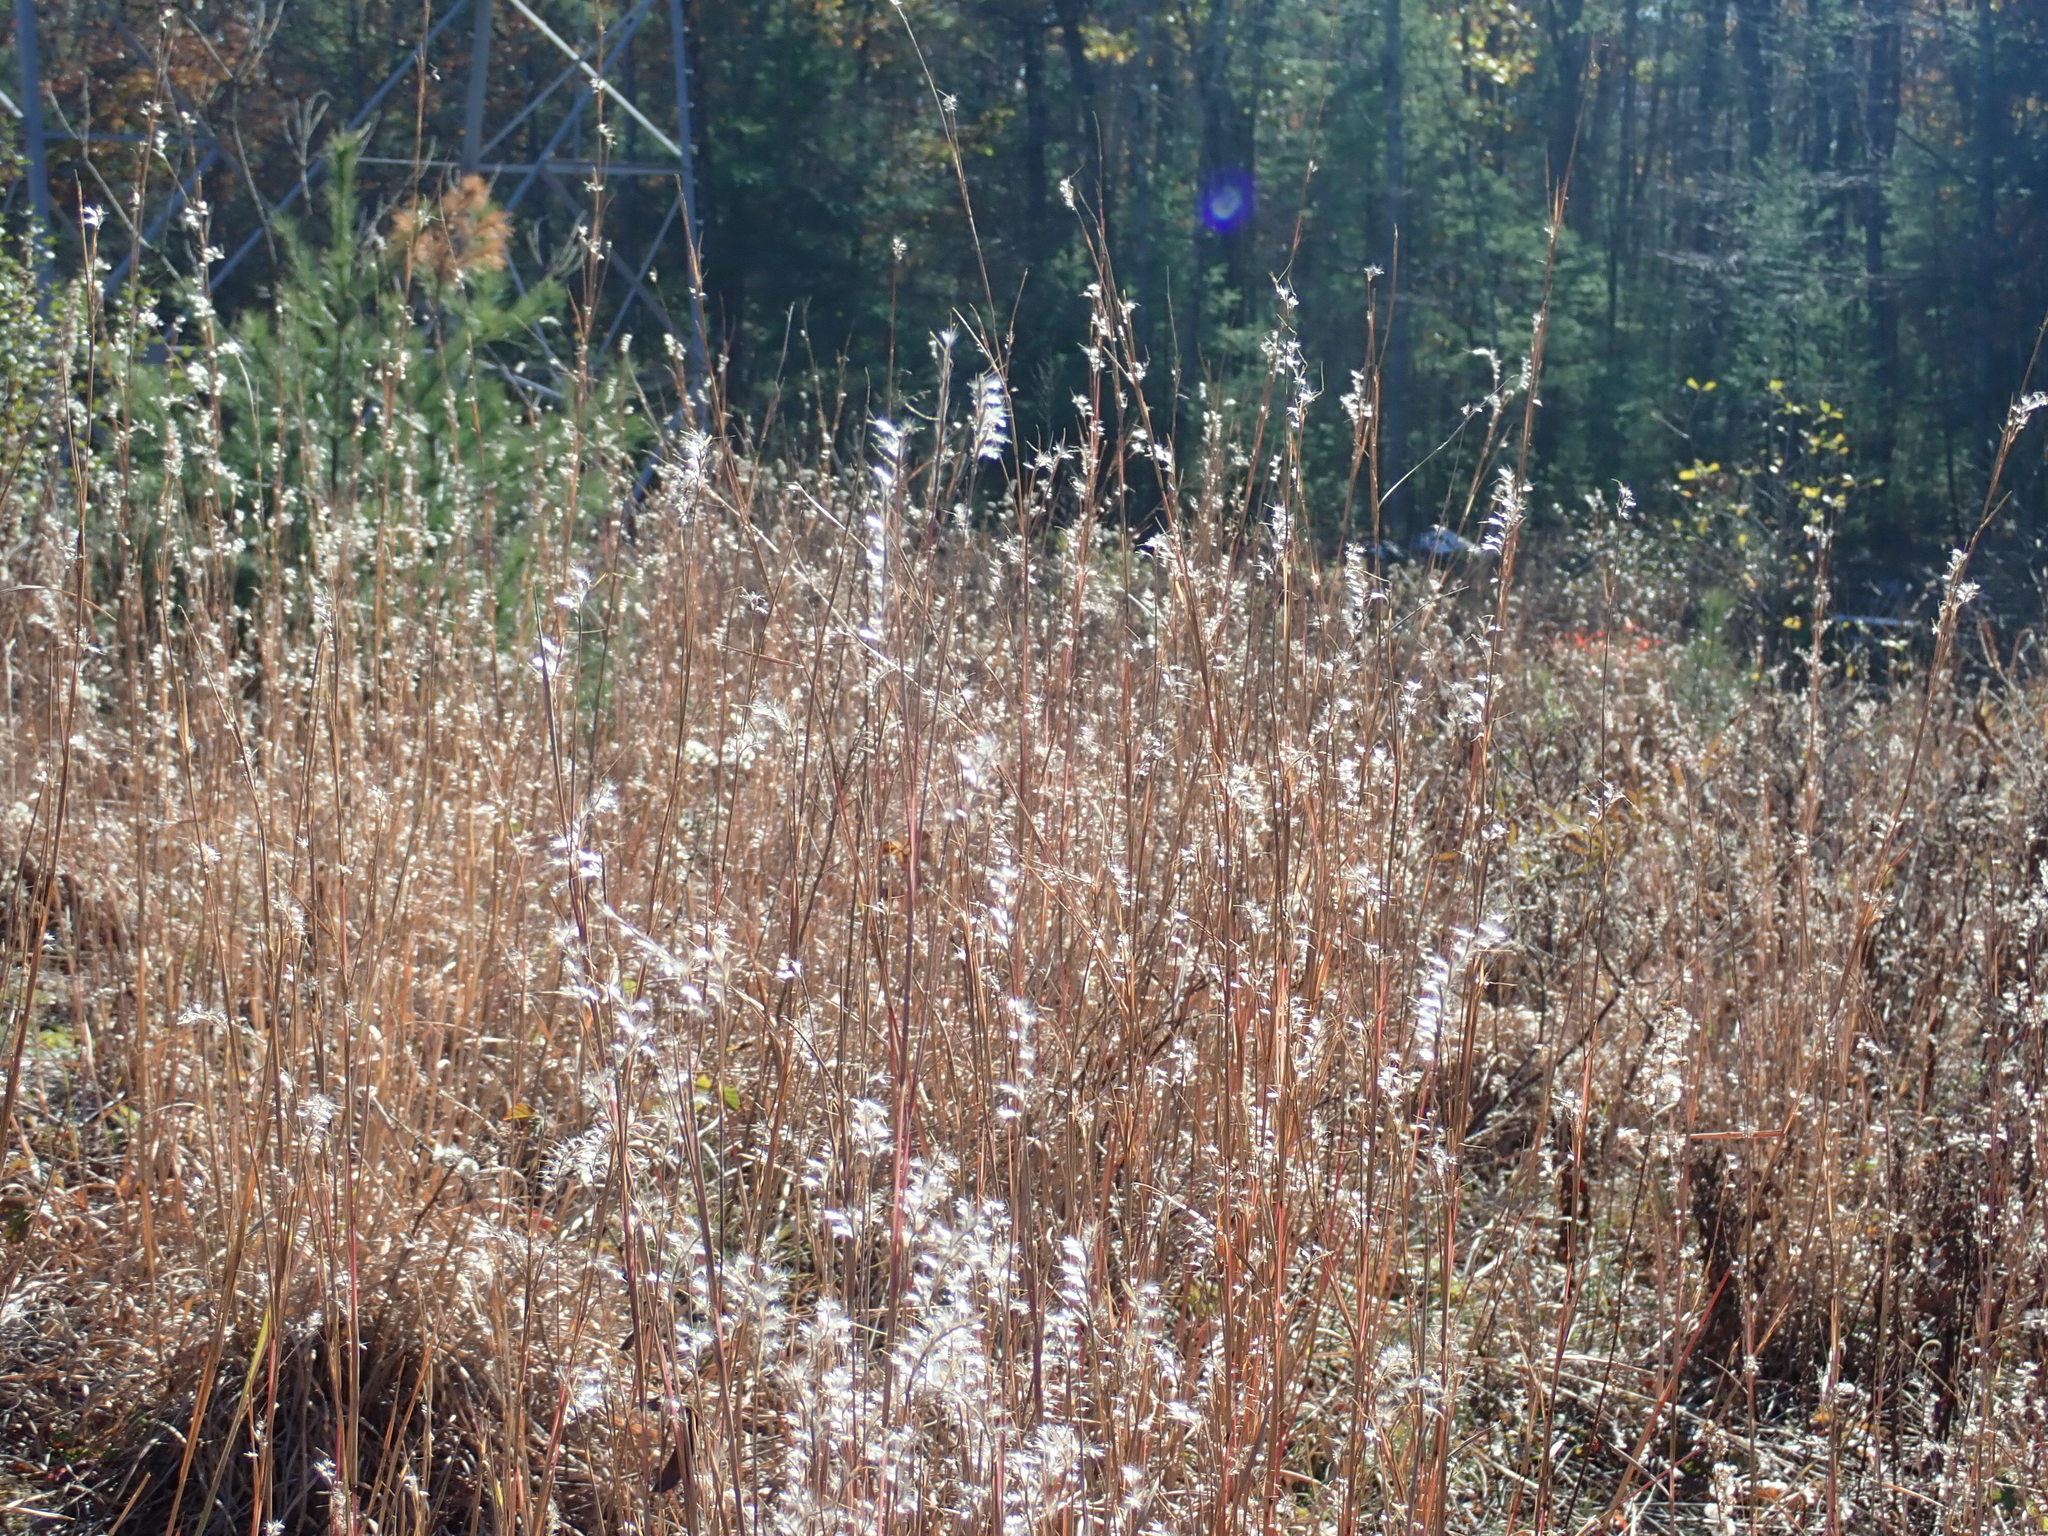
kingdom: Plantae
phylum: Tracheophyta
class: Liliopsida
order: Poales
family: Poaceae
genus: Schizachyrium
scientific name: Schizachyrium scoparium
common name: Little bluestem
